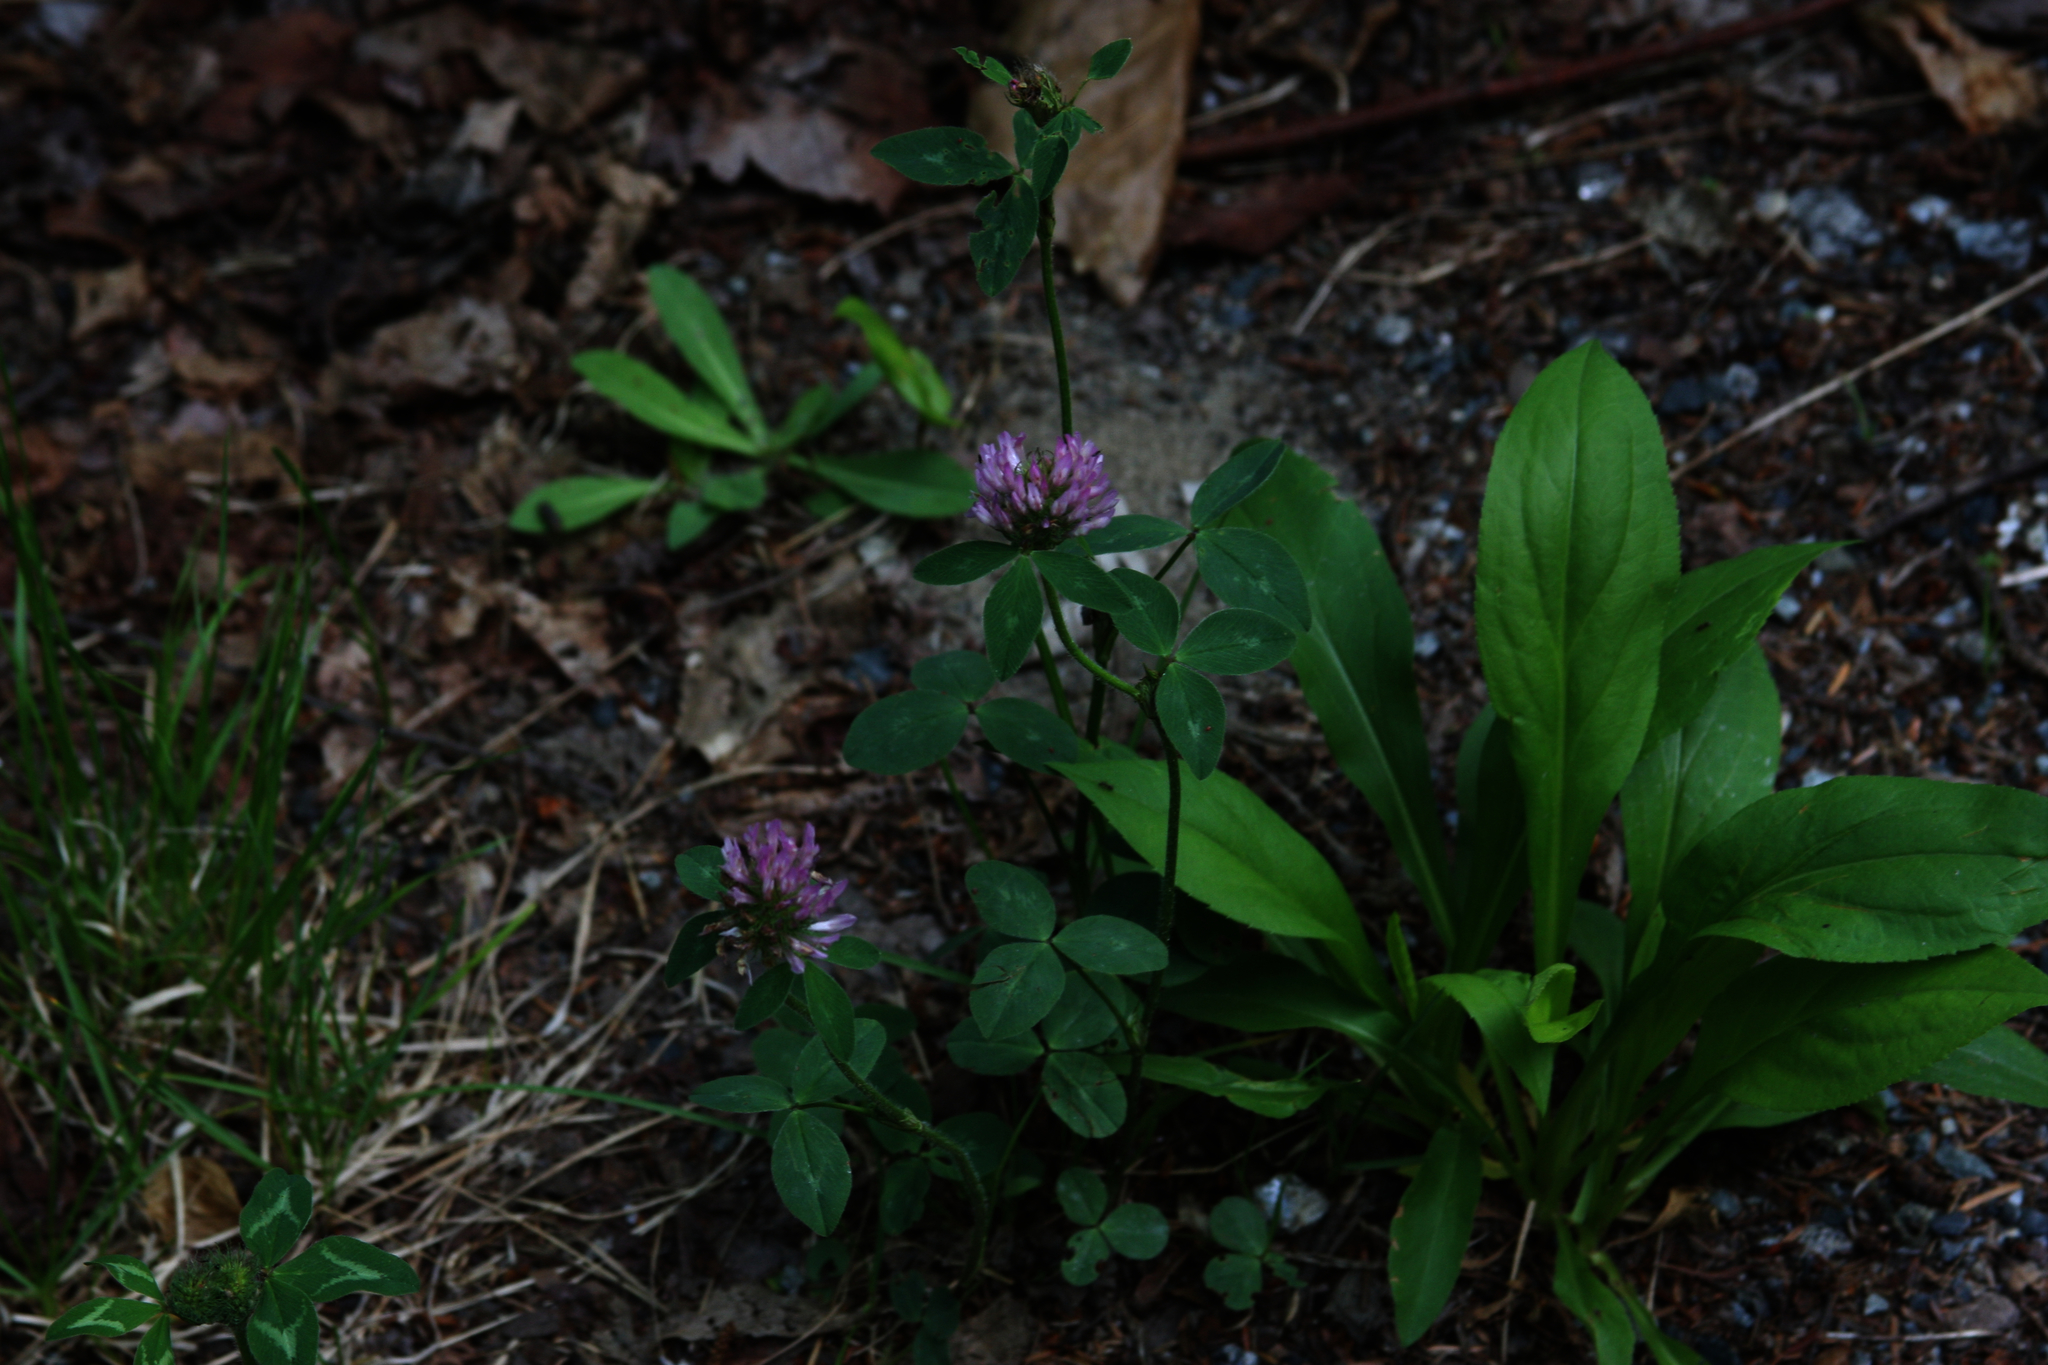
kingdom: Plantae
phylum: Tracheophyta
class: Magnoliopsida
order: Fabales
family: Fabaceae
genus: Trifolium
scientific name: Trifolium pratense
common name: Red clover
